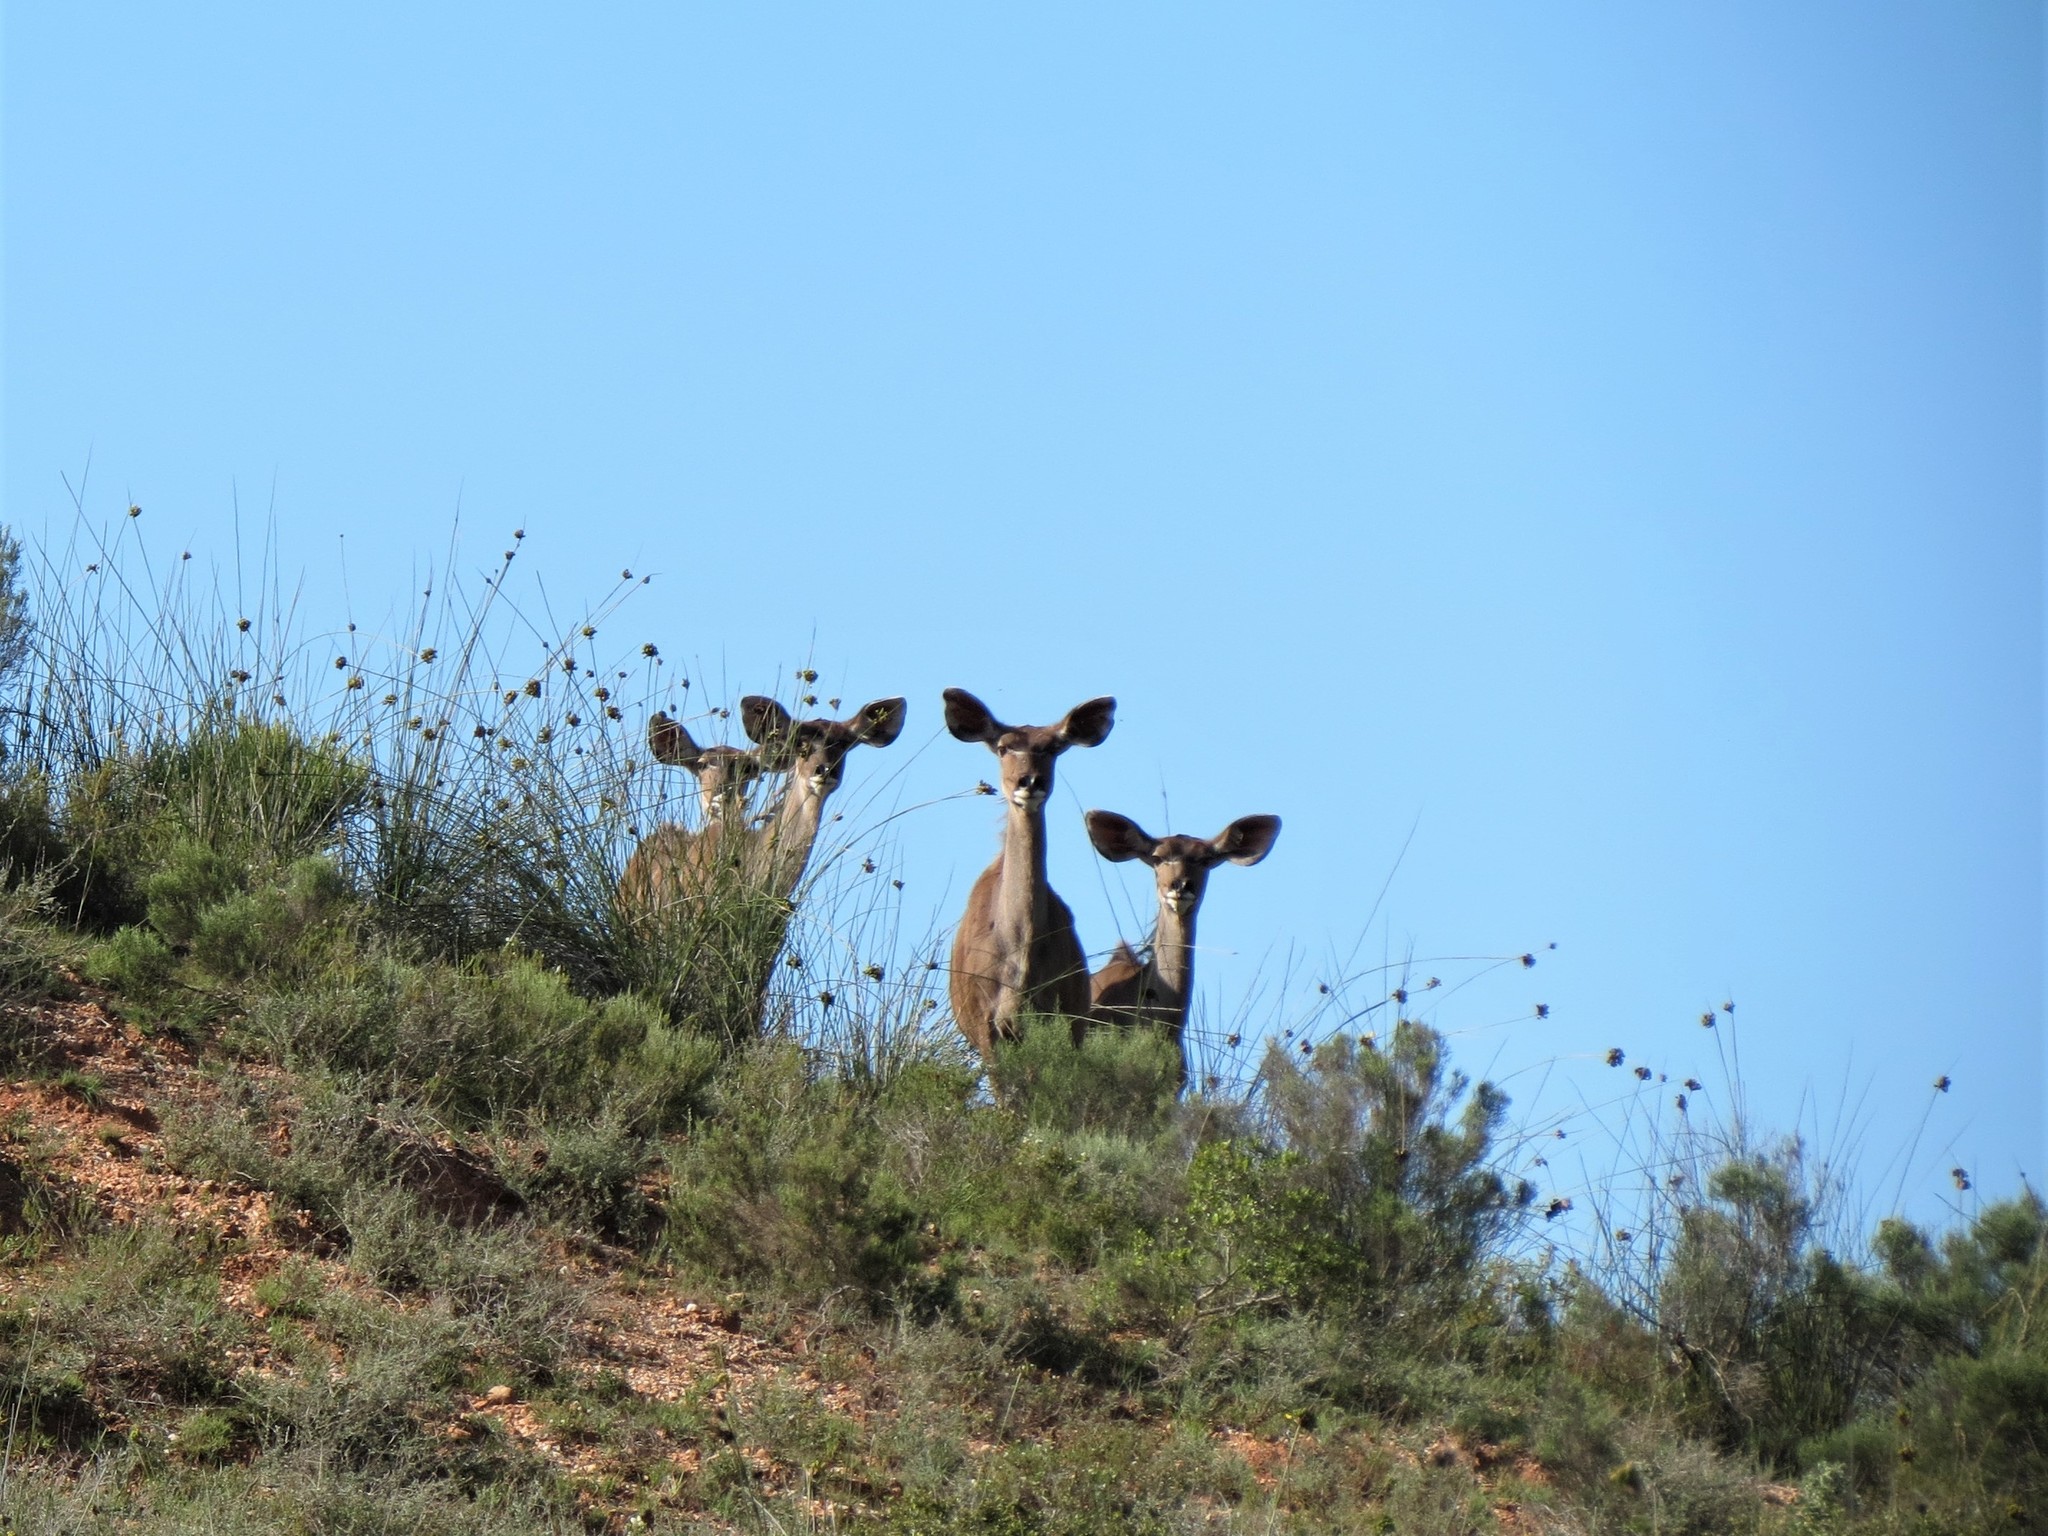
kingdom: Animalia
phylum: Chordata
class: Mammalia
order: Artiodactyla
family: Bovidae
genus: Tragelaphus
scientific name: Tragelaphus strepsiceros
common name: Greater kudu
